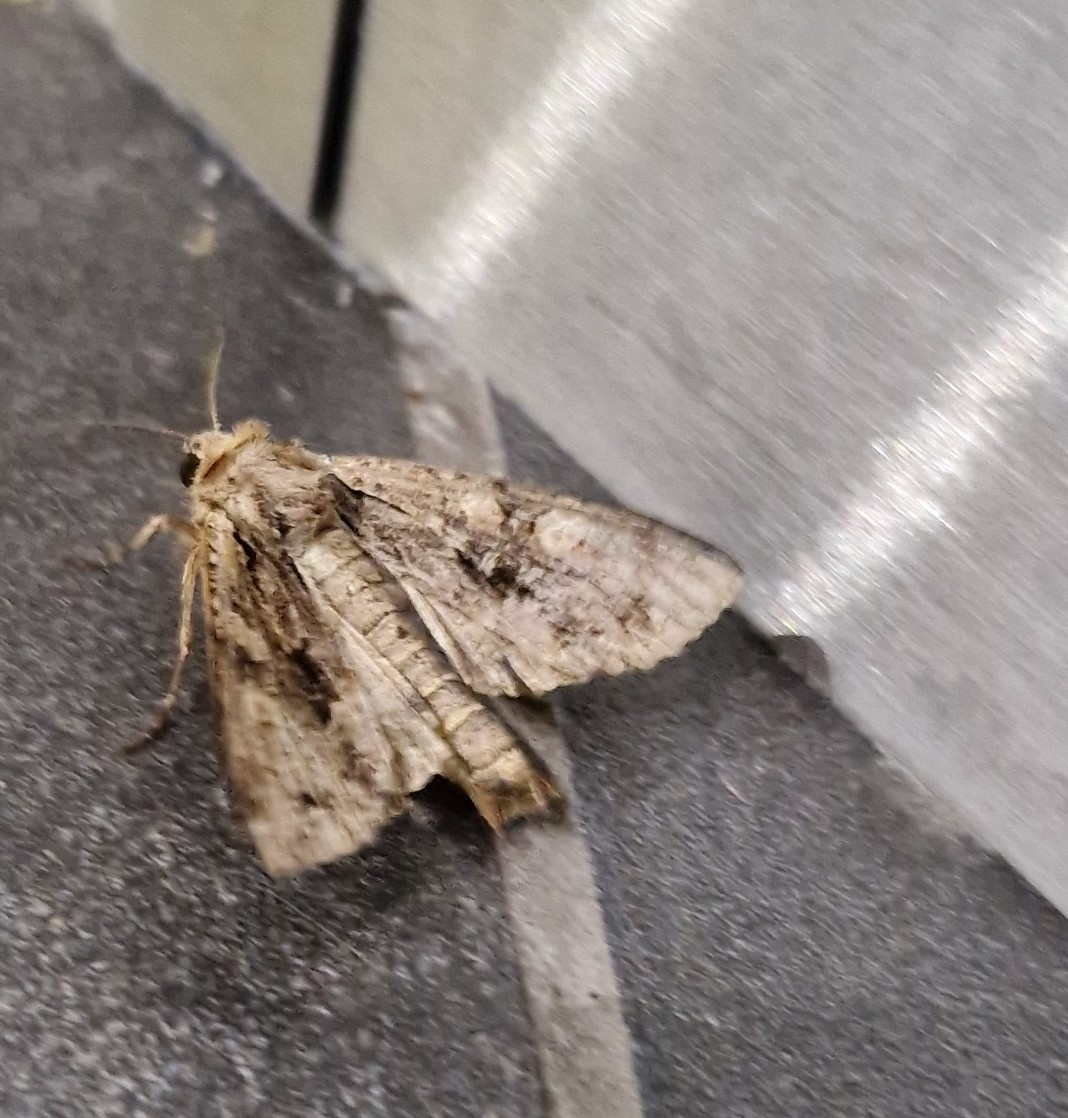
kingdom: Animalia
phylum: Arthropoda
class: Insecta
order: Lepidoptera
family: Noctuidae
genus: Apamea
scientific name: Apamea monoglypha
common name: Dark arches
